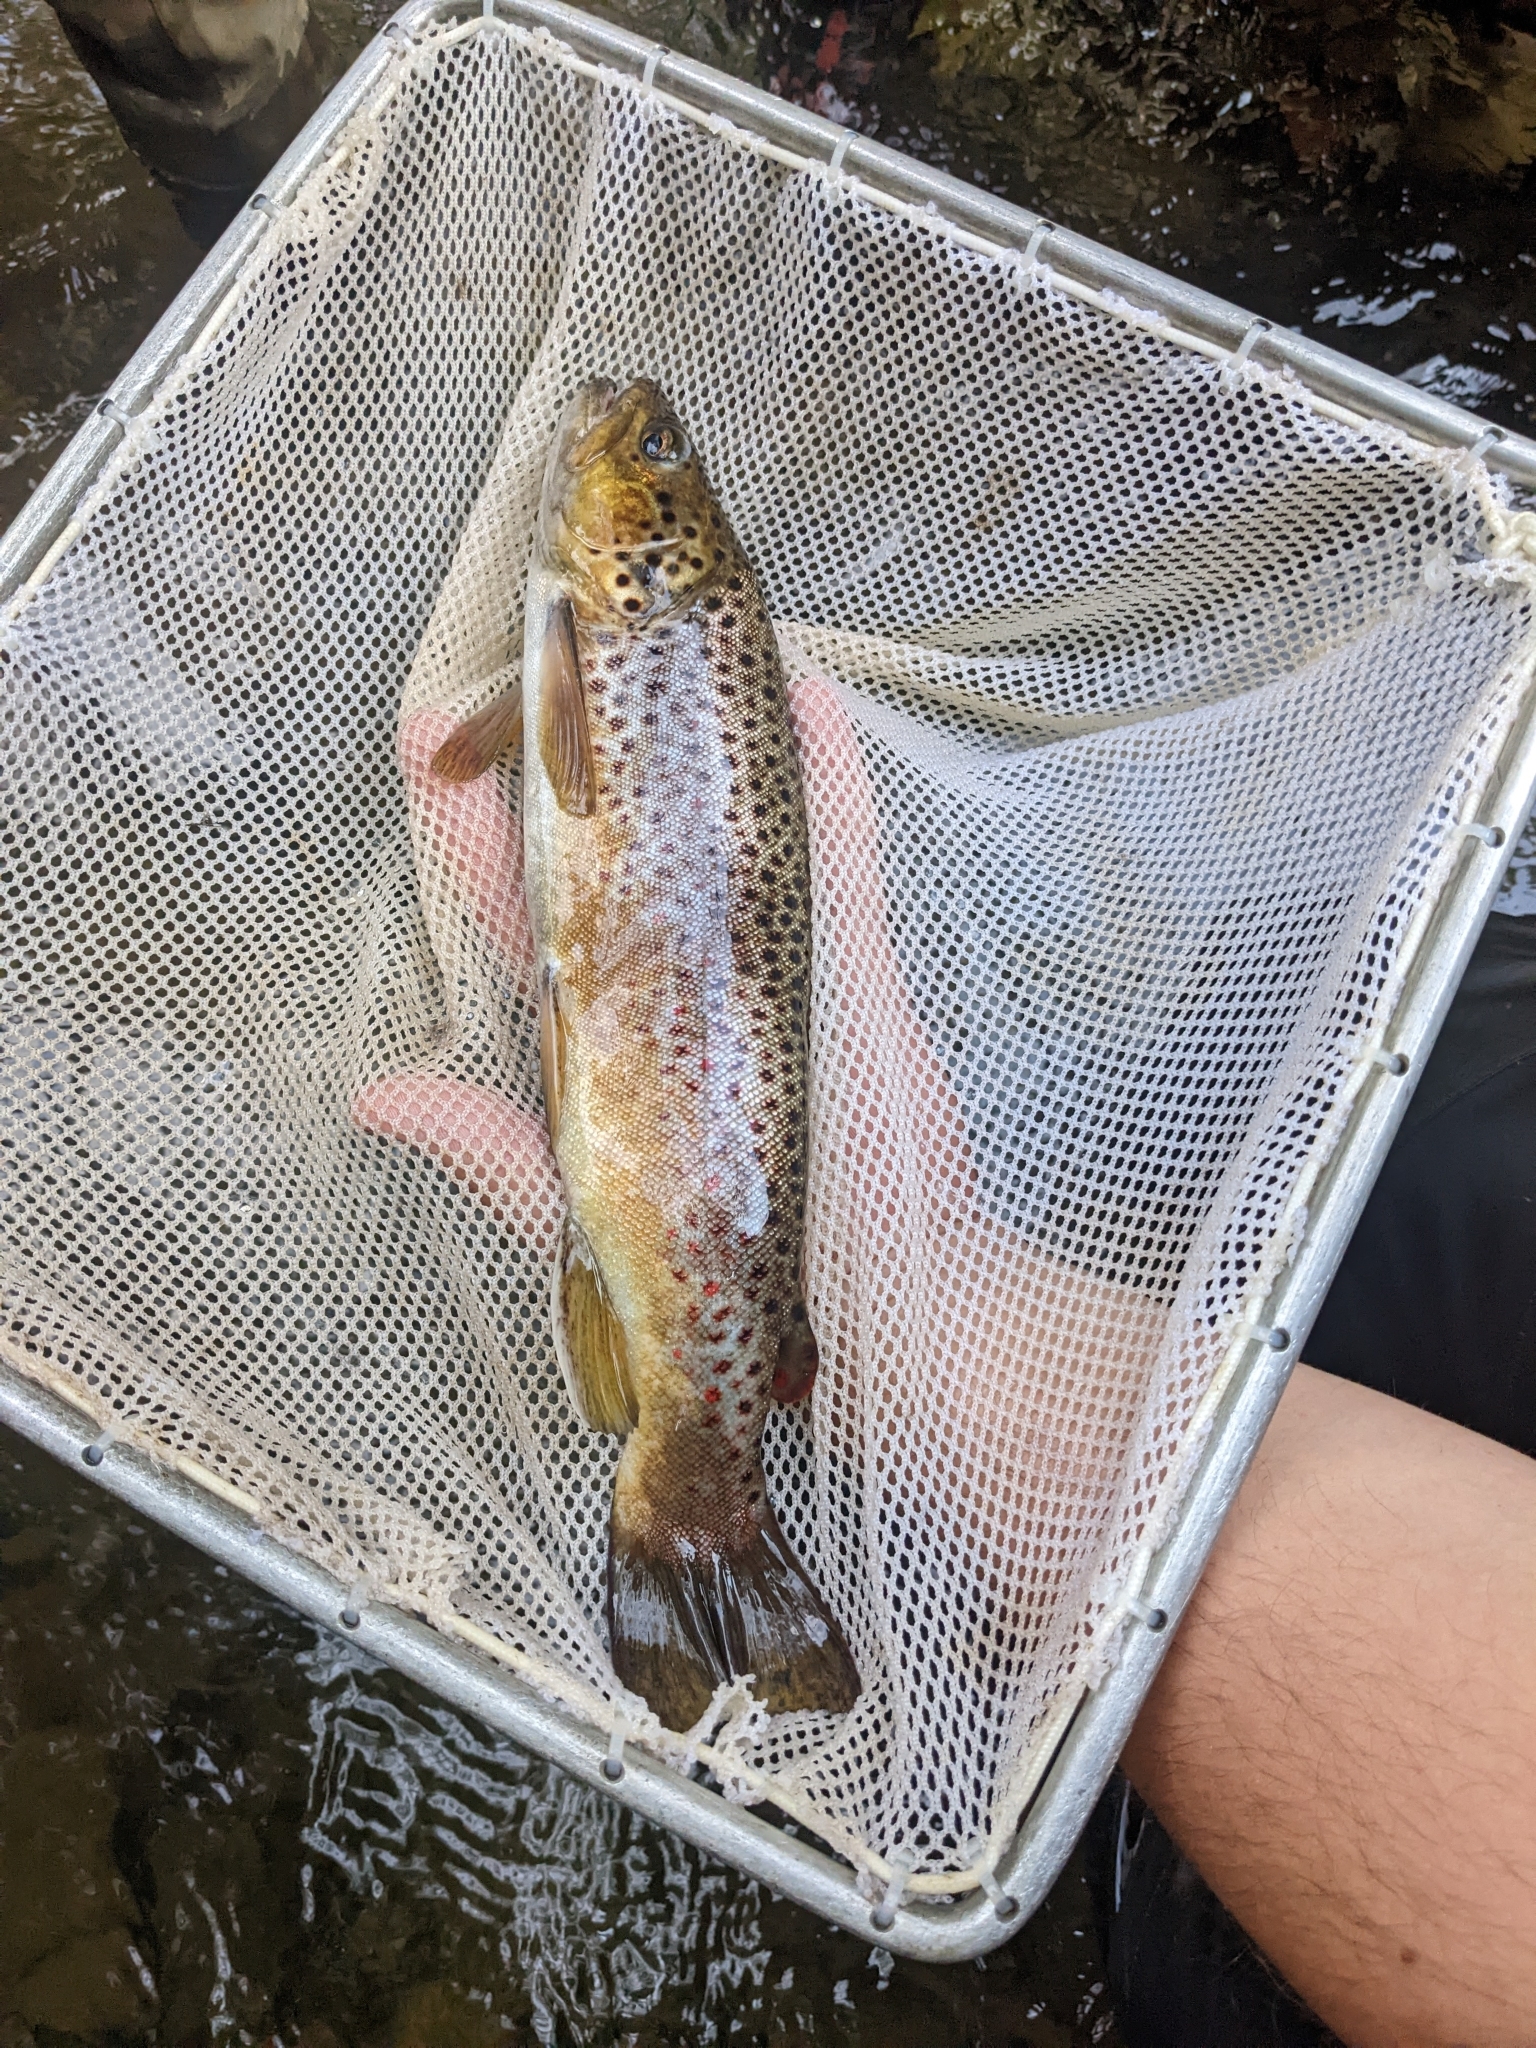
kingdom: Animalia
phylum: Chordata
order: Salmoniformes
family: Salmonidae
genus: Salmo
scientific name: Salmo trutta
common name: Brown trout
